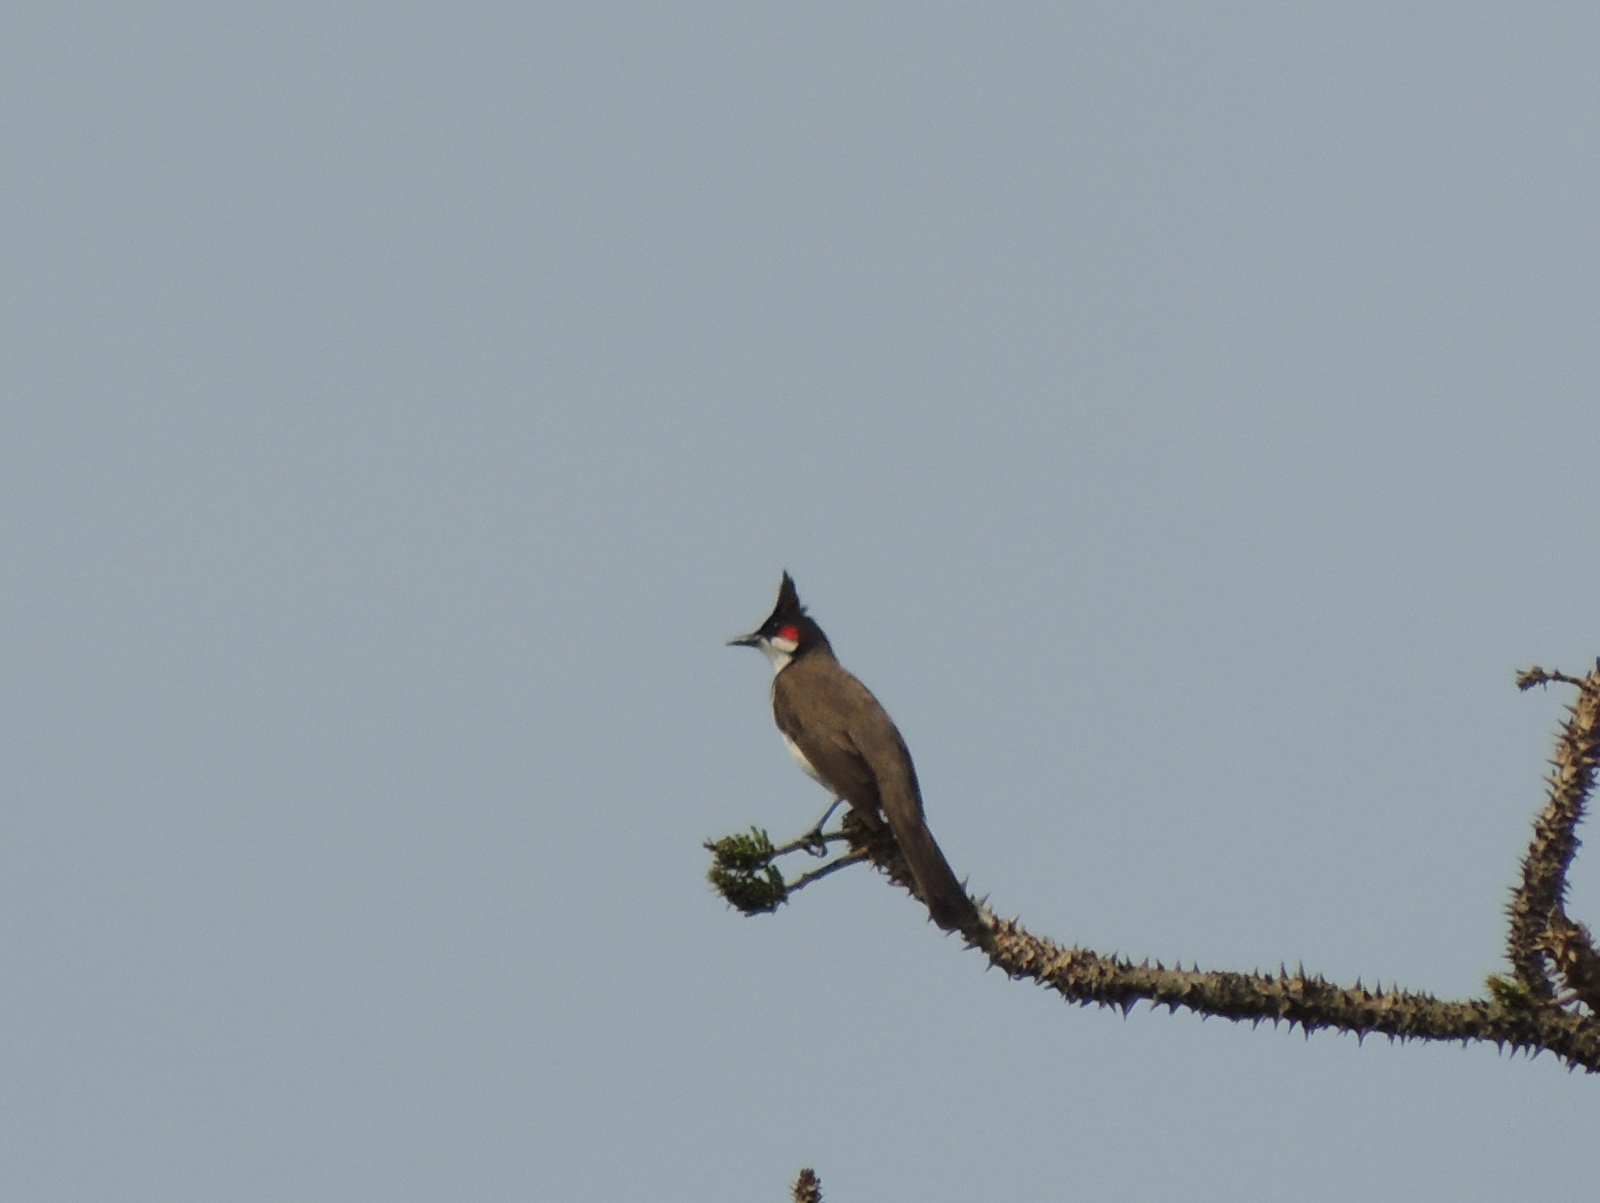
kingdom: Animalia
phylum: Chordata
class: Aves
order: Passeriformes
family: Pycnonotidae
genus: Pycnonotus
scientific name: Pycnonotus jocosus
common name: Red-whiskered bulbul
